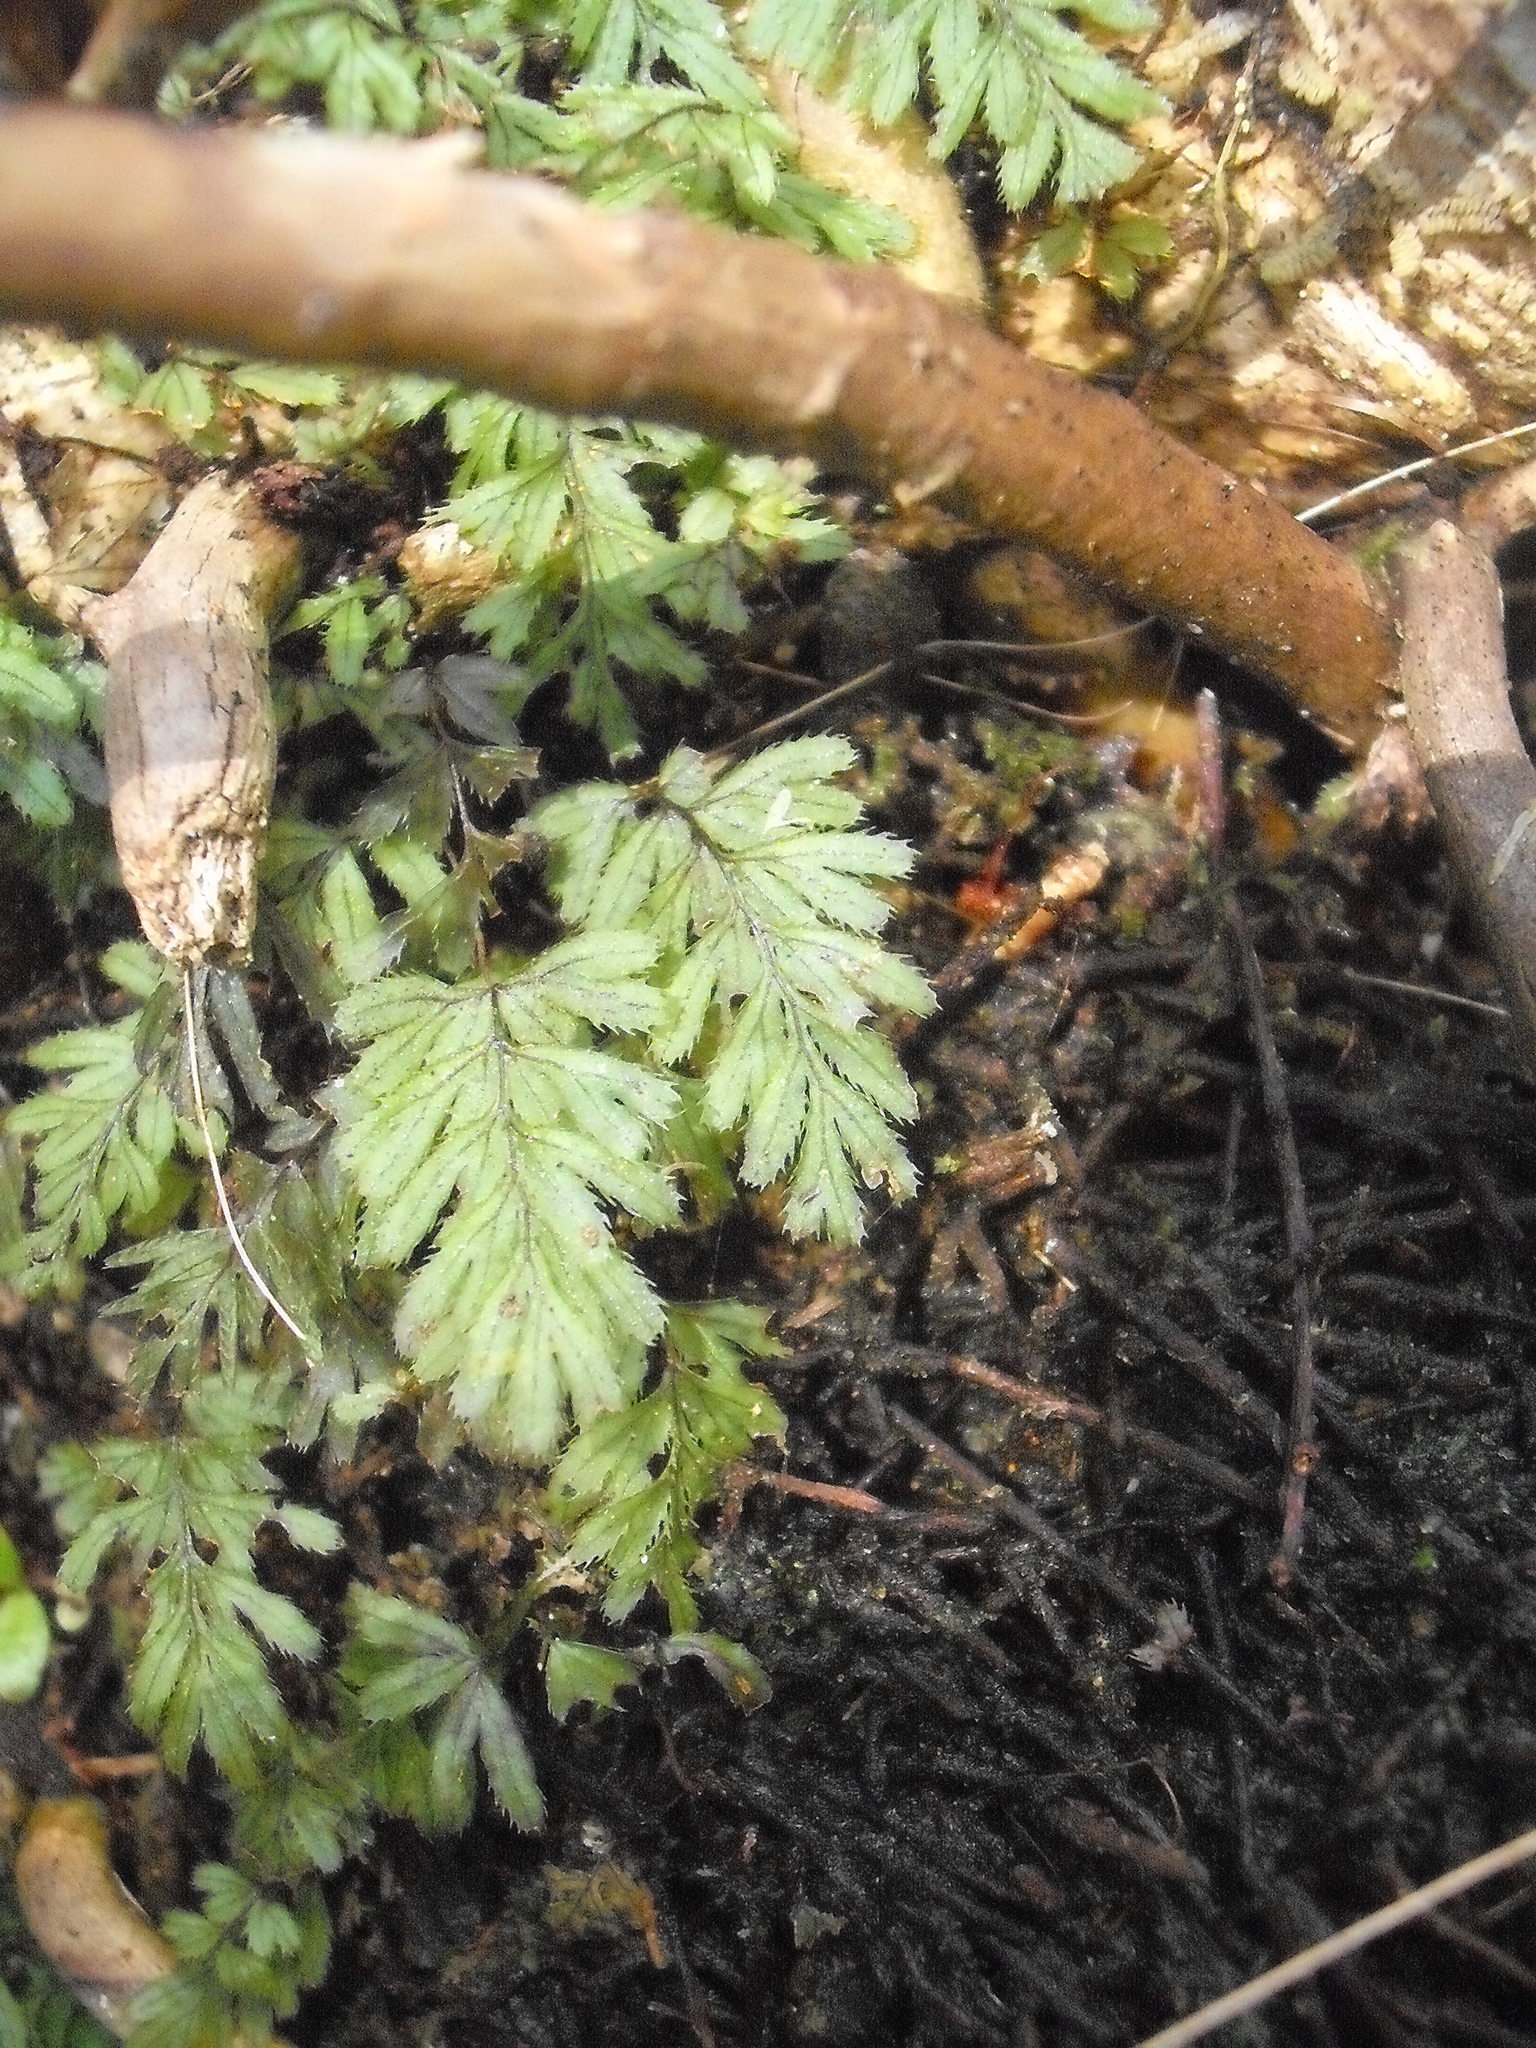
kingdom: Plantae
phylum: Tracheophyta
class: Polypodiopsida
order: Hymenophyllales
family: Hymenophyllaceae
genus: Hymenophyllum
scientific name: Hymenophyllum revolutum
